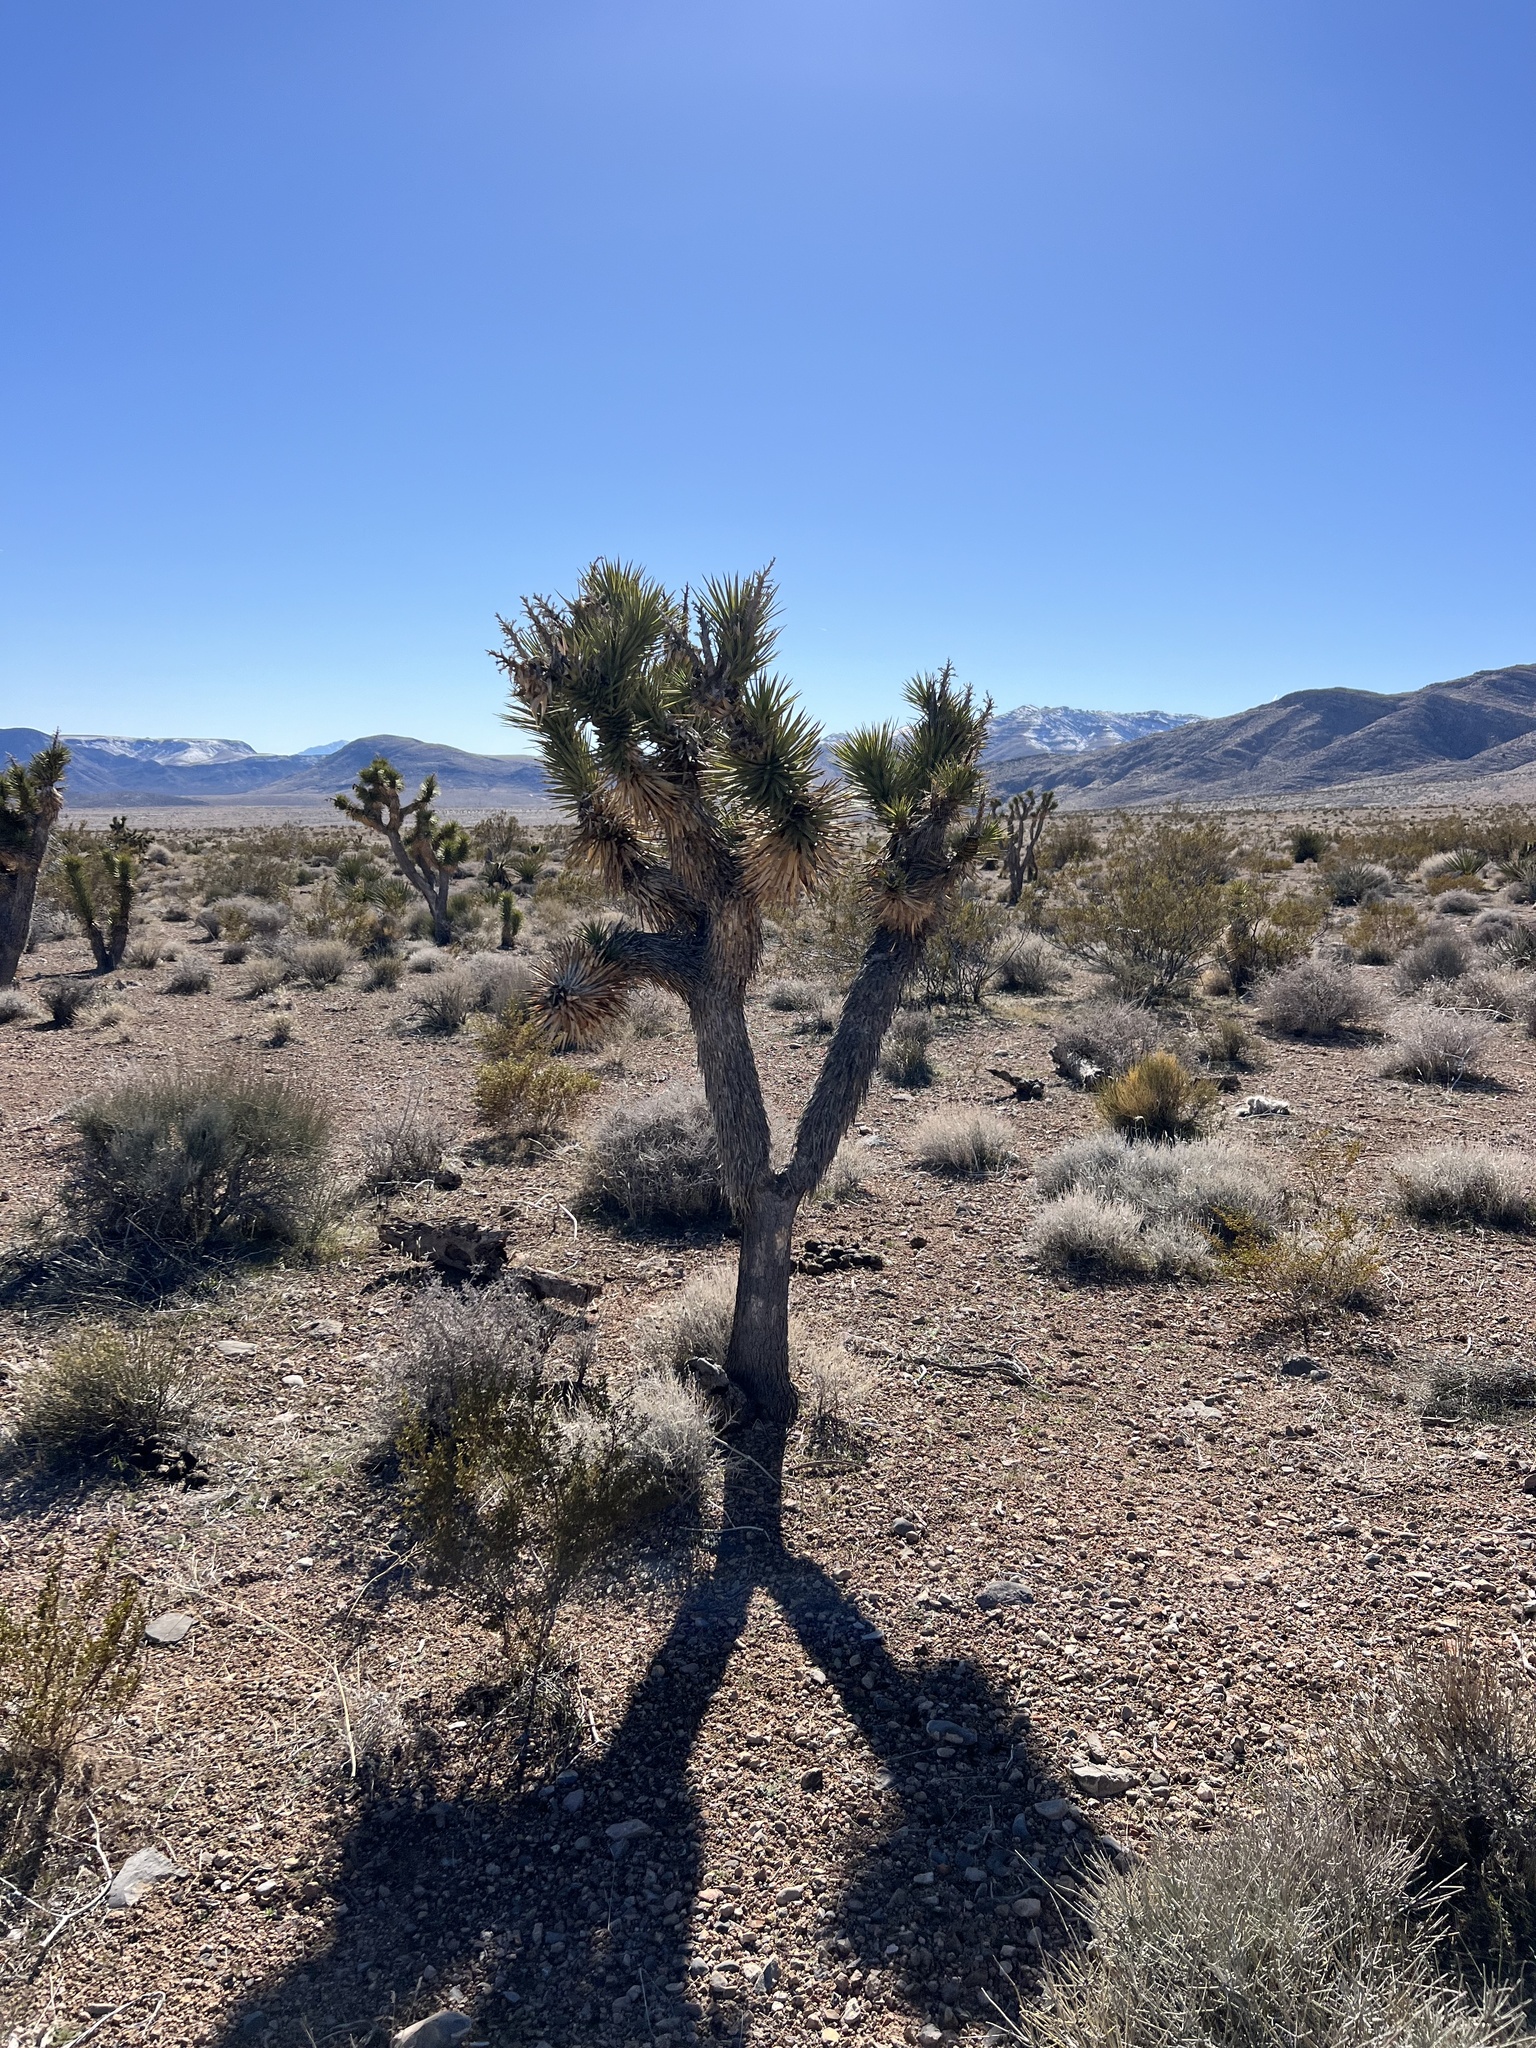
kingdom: Plantae
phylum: Tracheophyta
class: Liliopsida
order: Asparagales
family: Asparagaceae
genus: Yucca
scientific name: Yucca brevifolia
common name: Joshua tree
